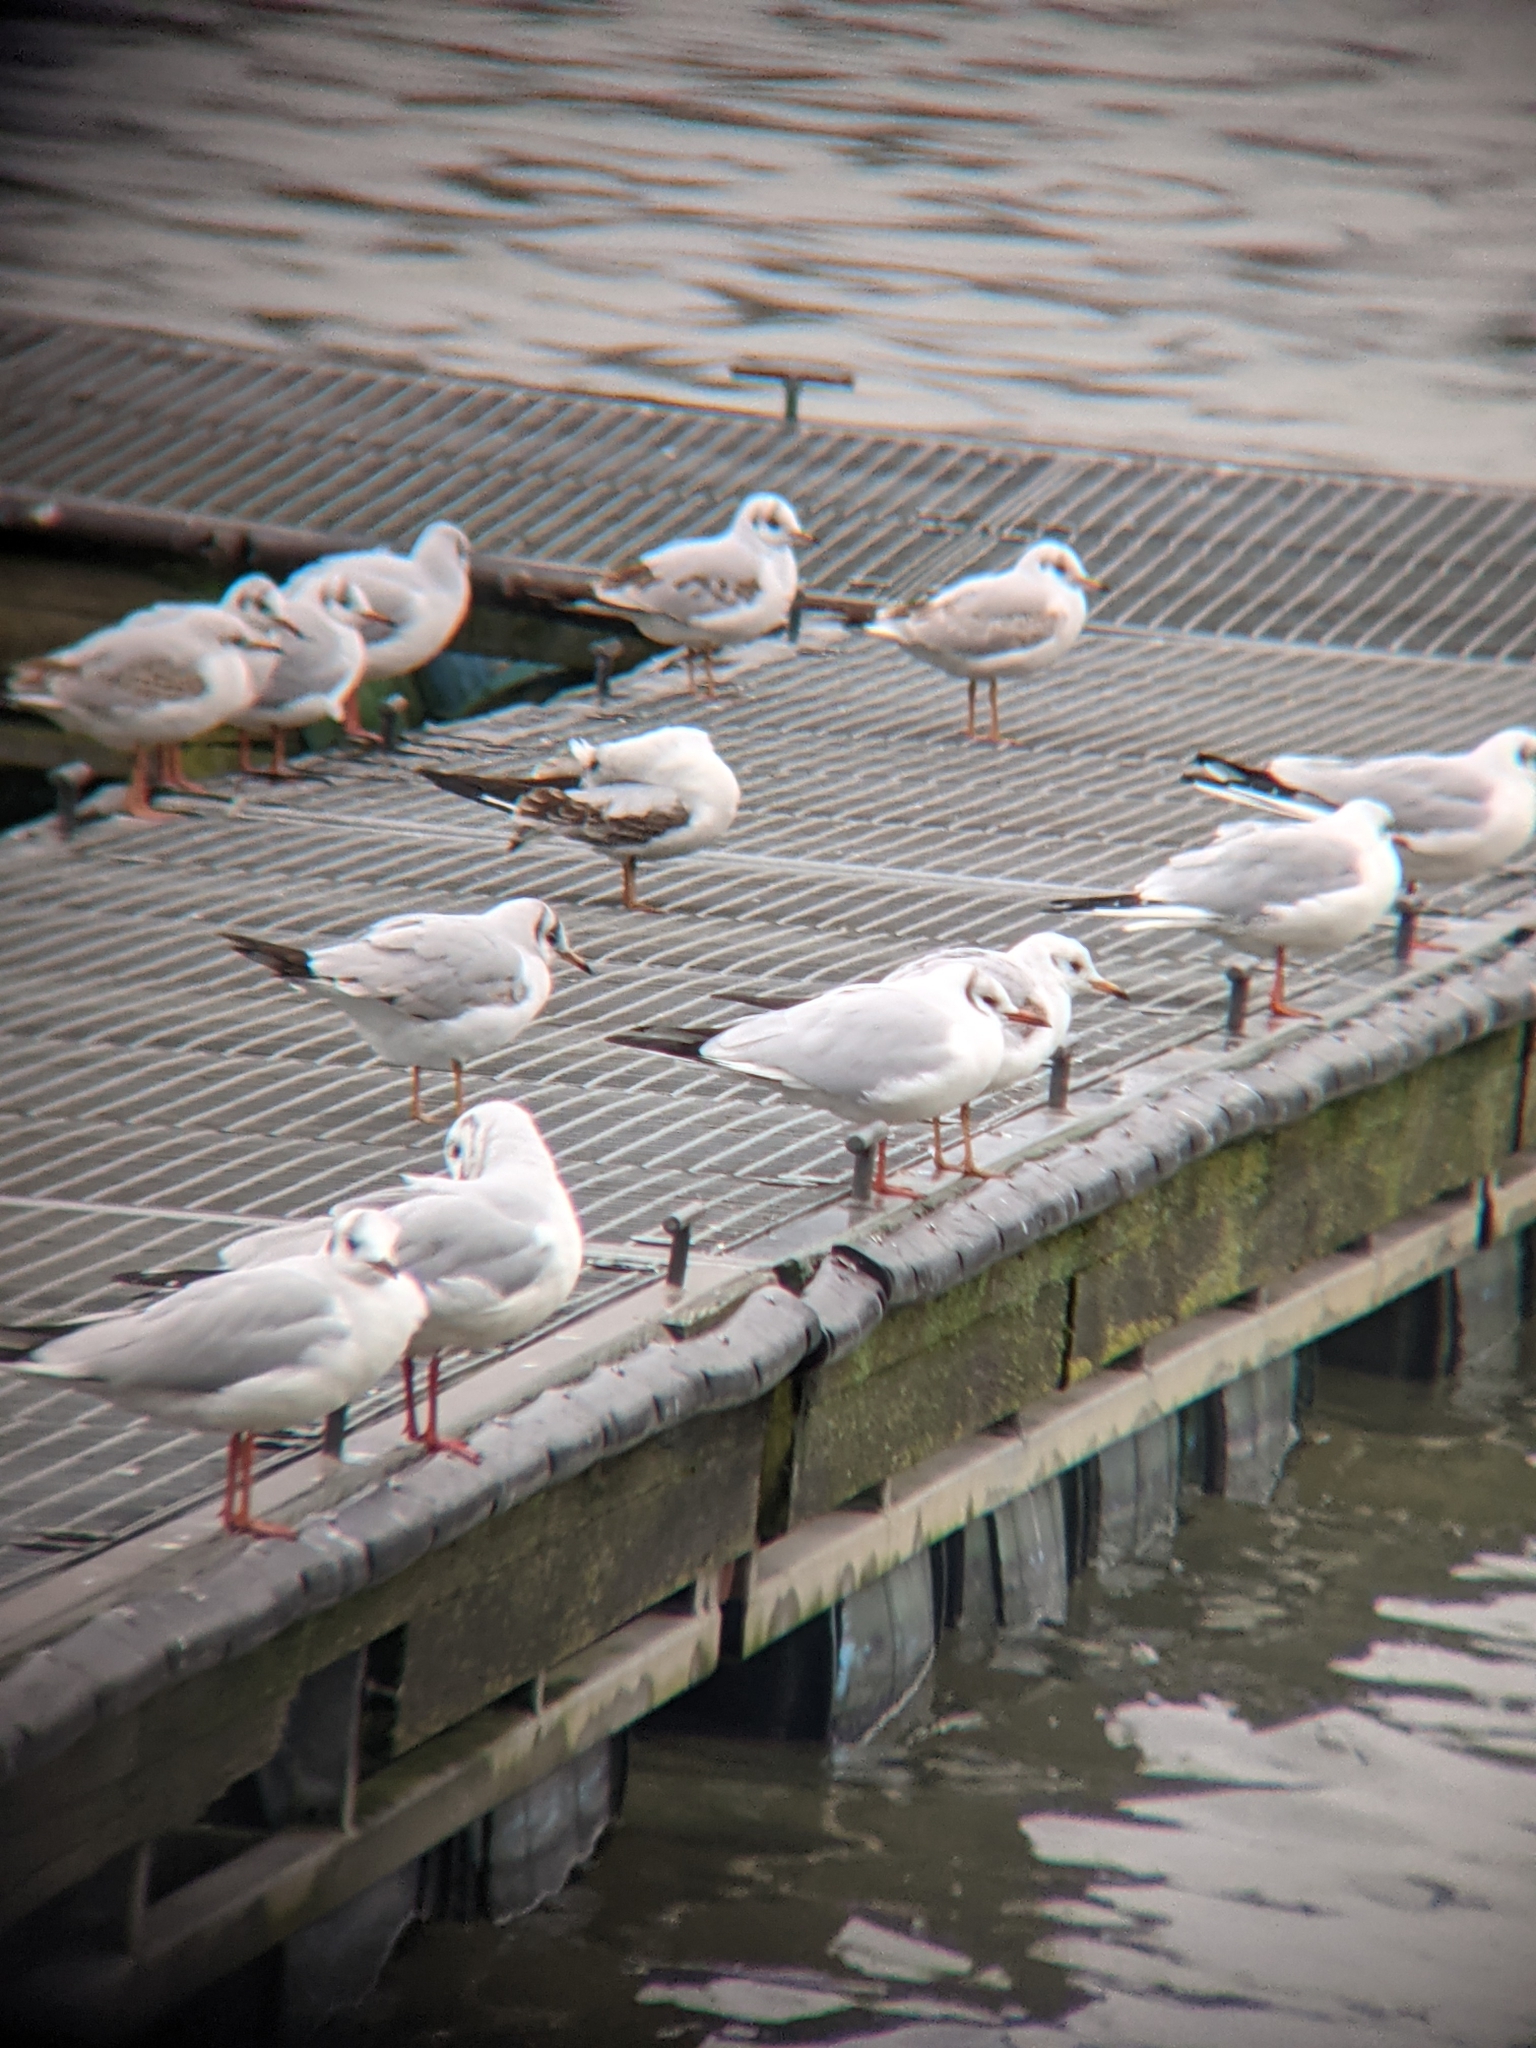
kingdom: Animalia
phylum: Chordata
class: Aves
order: Charadriiformes
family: Laridae
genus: Chroicocephalus
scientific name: Chroicocephalus ridibundus
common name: Black-headed gull
